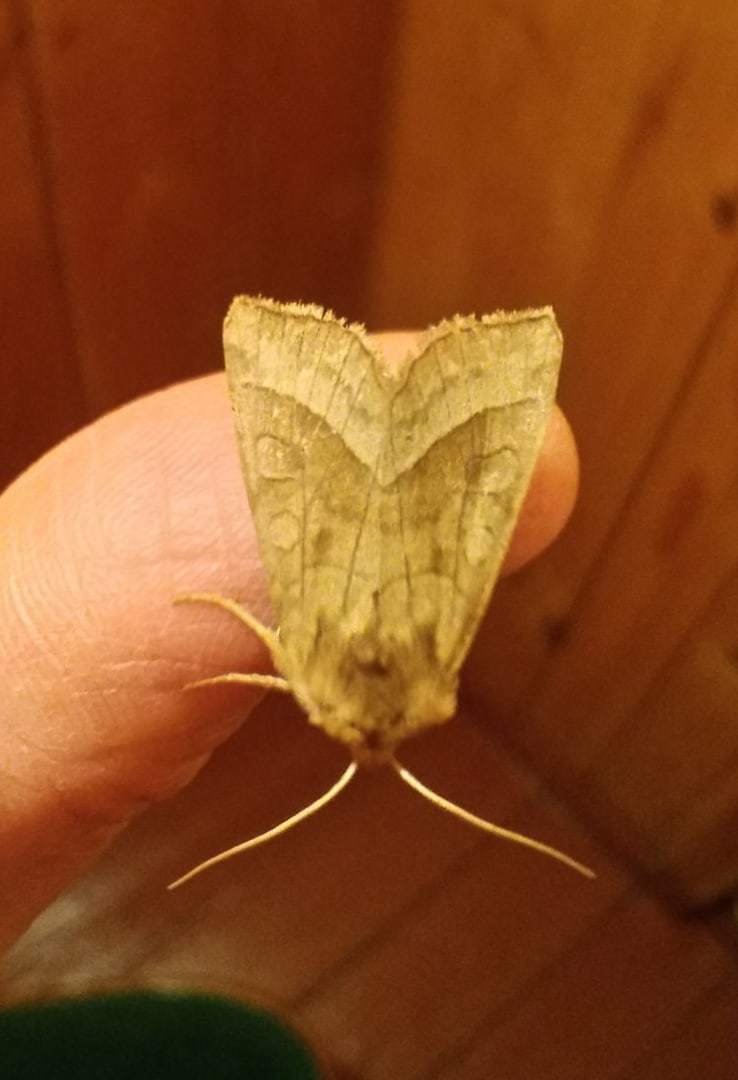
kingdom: Animalia
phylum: Arthropoda
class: Insecta
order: Lepidoptera
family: Noctuidae
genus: Hydraecia
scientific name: Hydraecia micacea
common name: Rosy rustic
